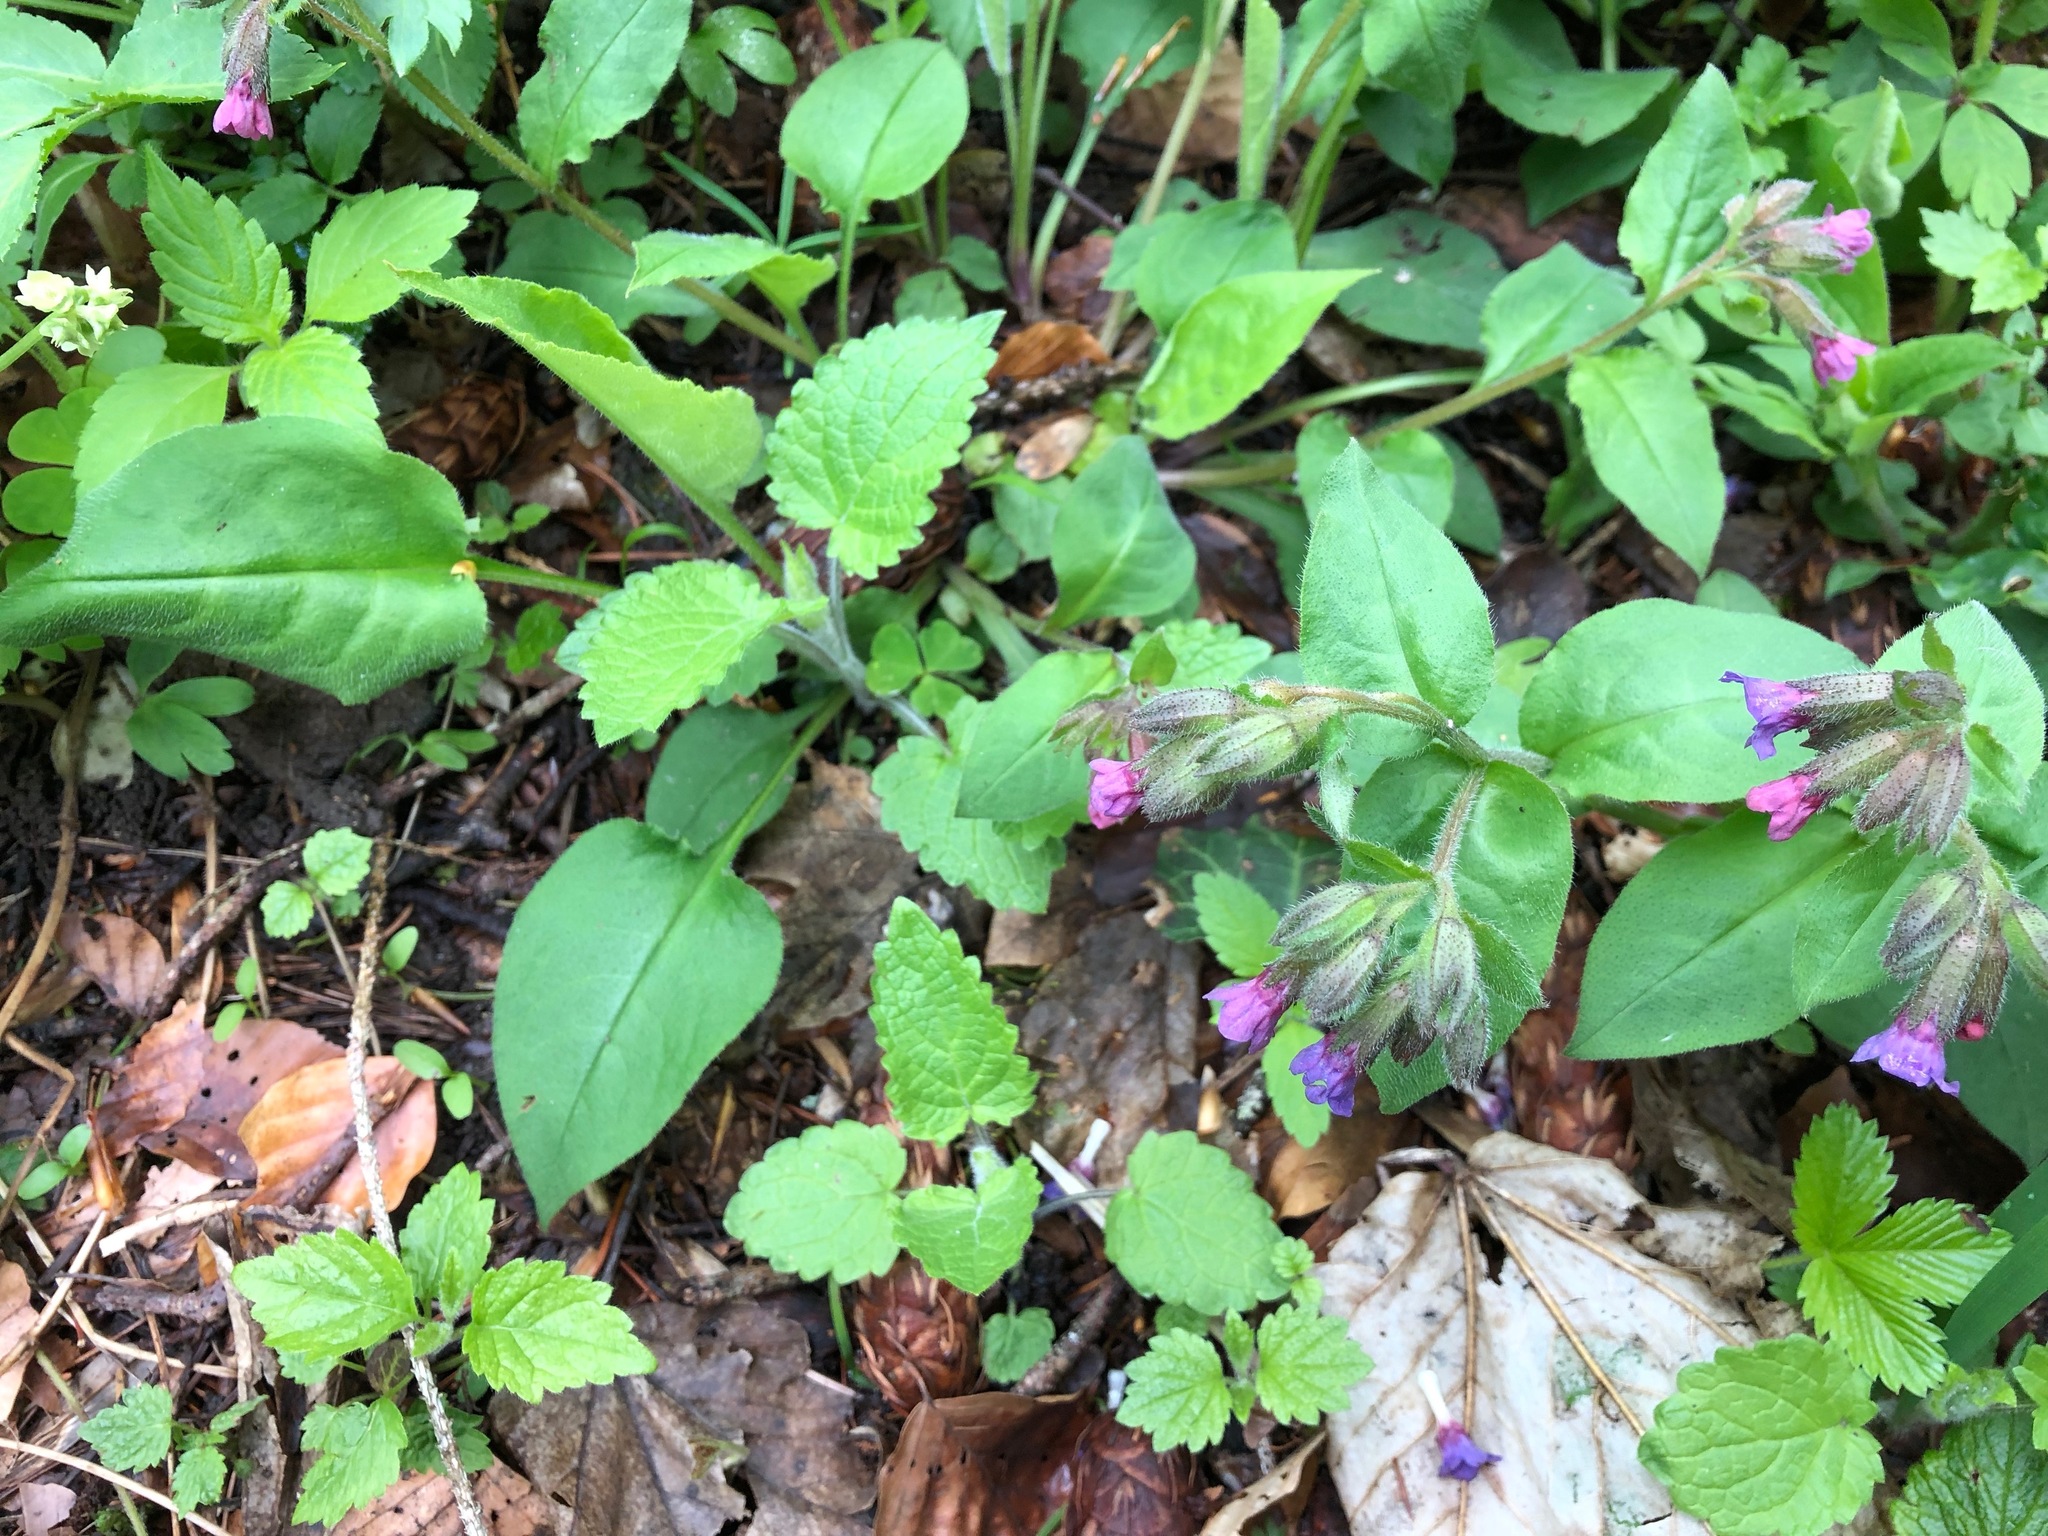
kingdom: Plantae
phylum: Tracheophyta
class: Magnoliopsida
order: Boraginales
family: Boraginaceae
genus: Pulmonaria
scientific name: Pulmonaria obscura
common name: Suffolk lungwort
